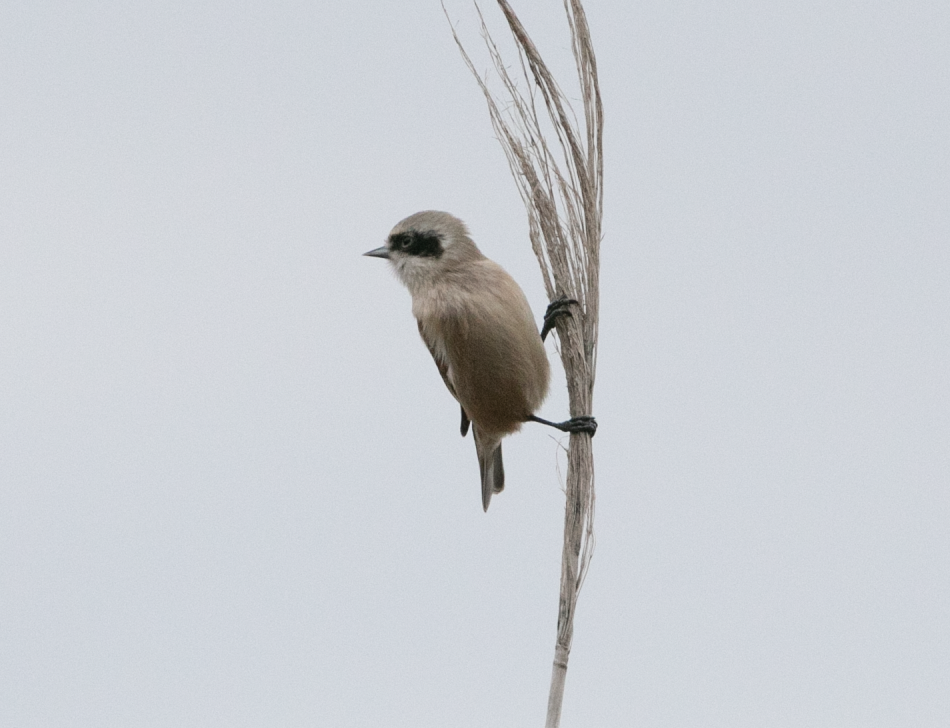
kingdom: Animalia
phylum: Chordata
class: Aves
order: Passeriformes
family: Remizidae
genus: Remiz
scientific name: Remiz pendulinus
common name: Eurasian penduline tit
